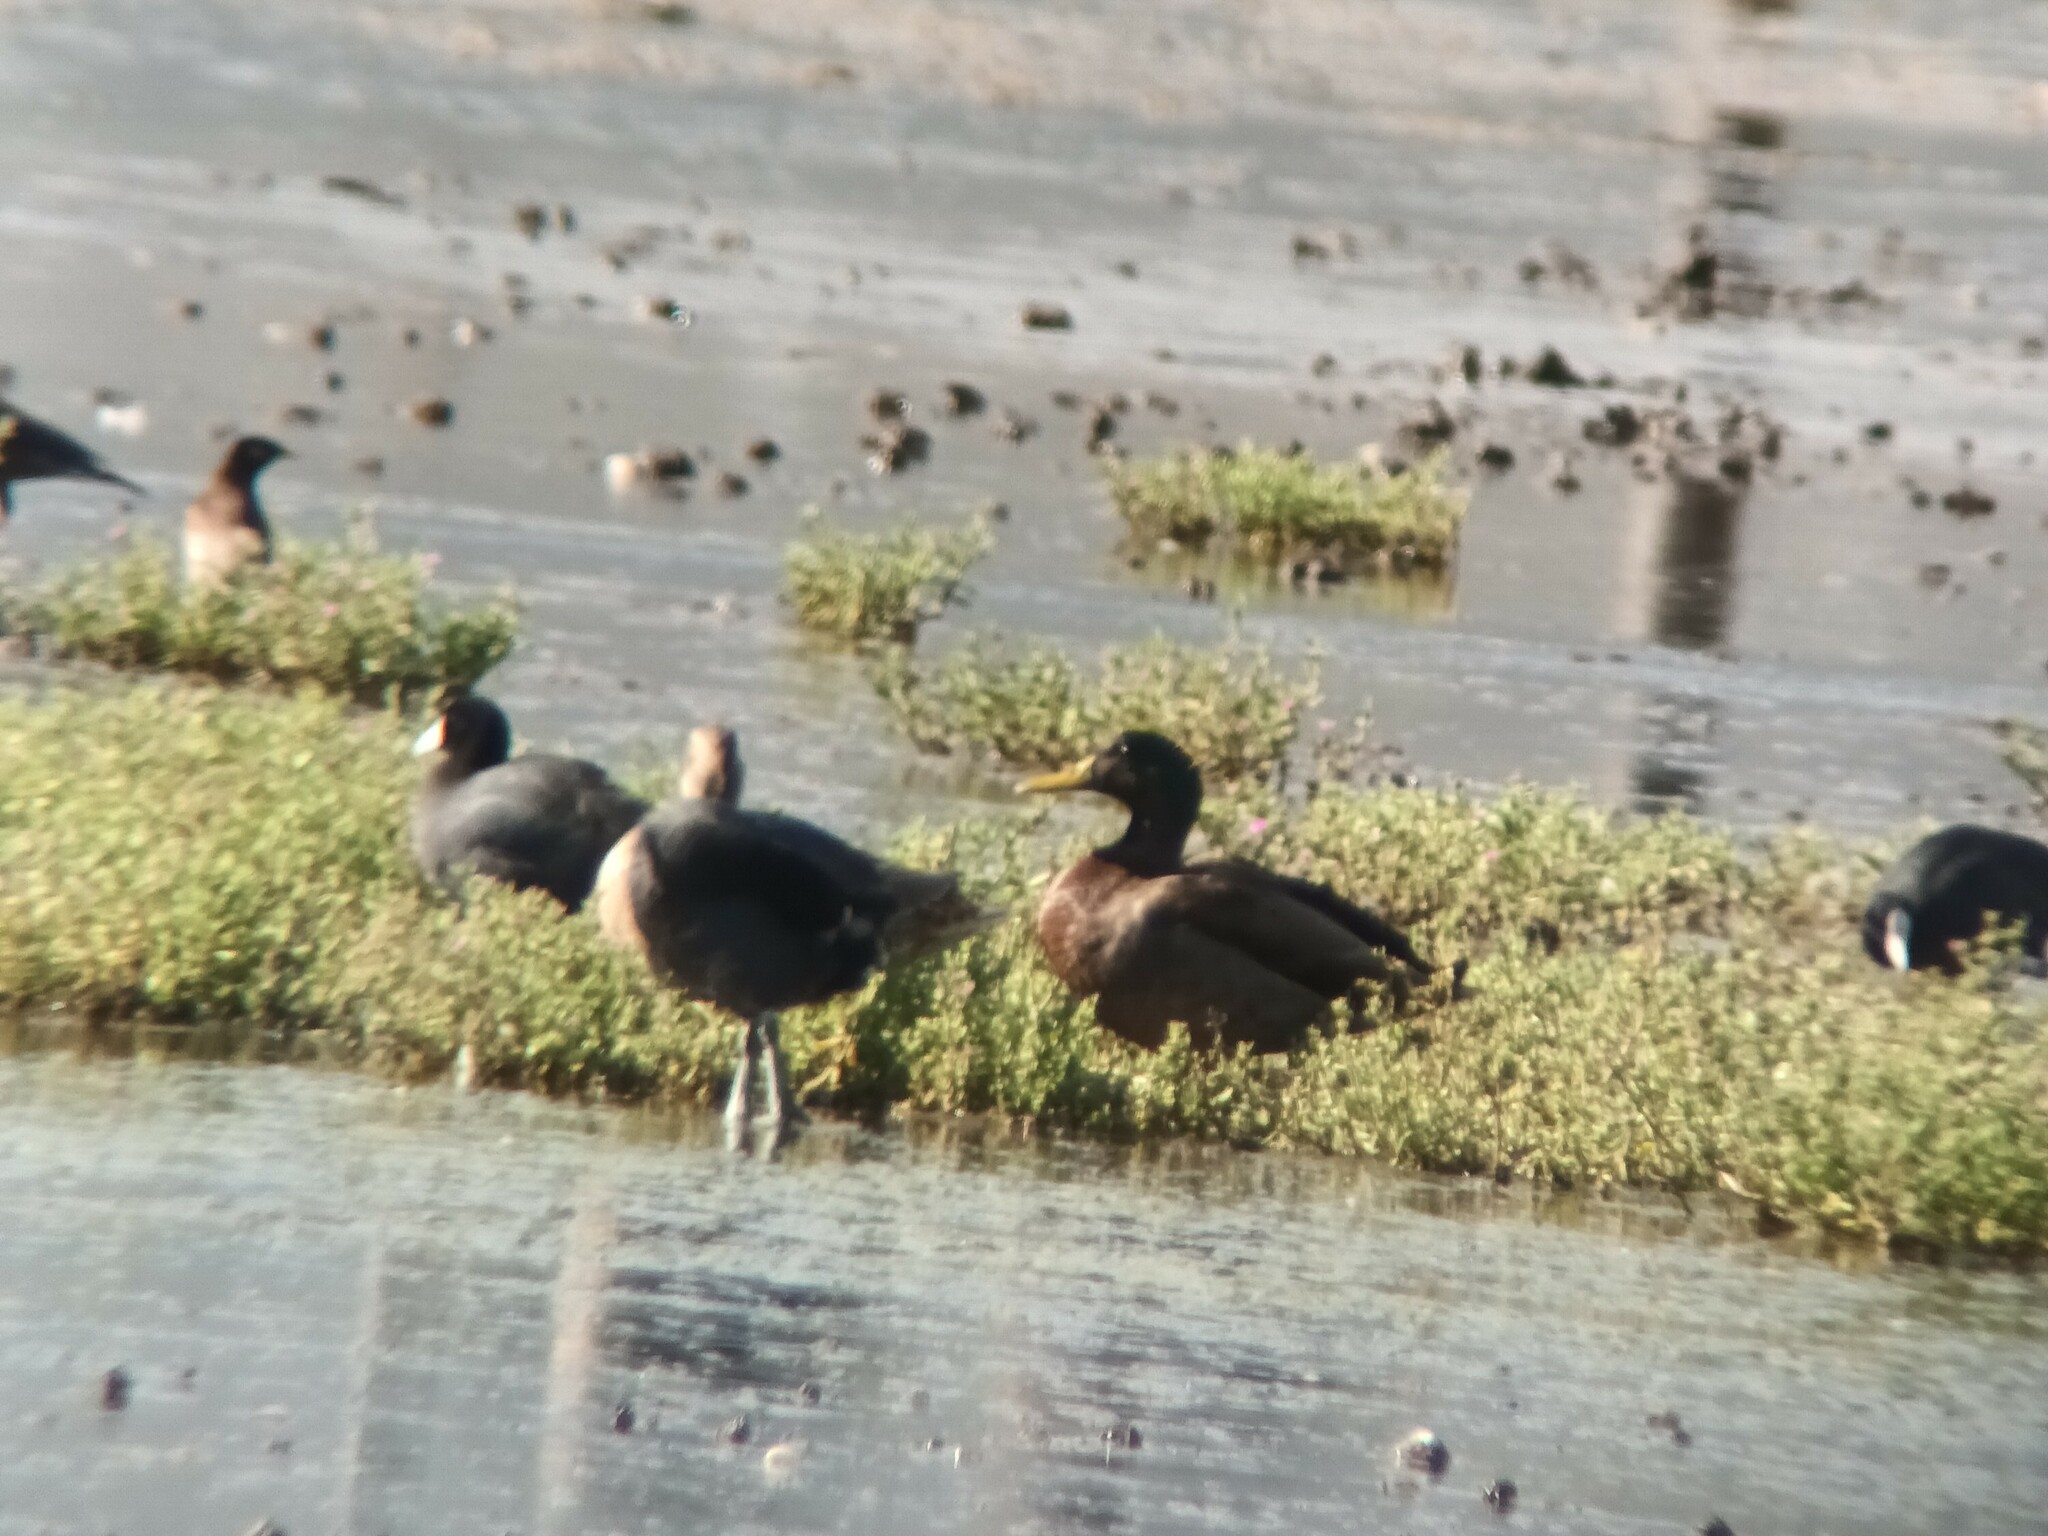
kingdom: Animalia
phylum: Chordata
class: Aves
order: Anseriformes
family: Anatidae
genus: Anas
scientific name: Anas platyrhynchos
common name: Mallard
